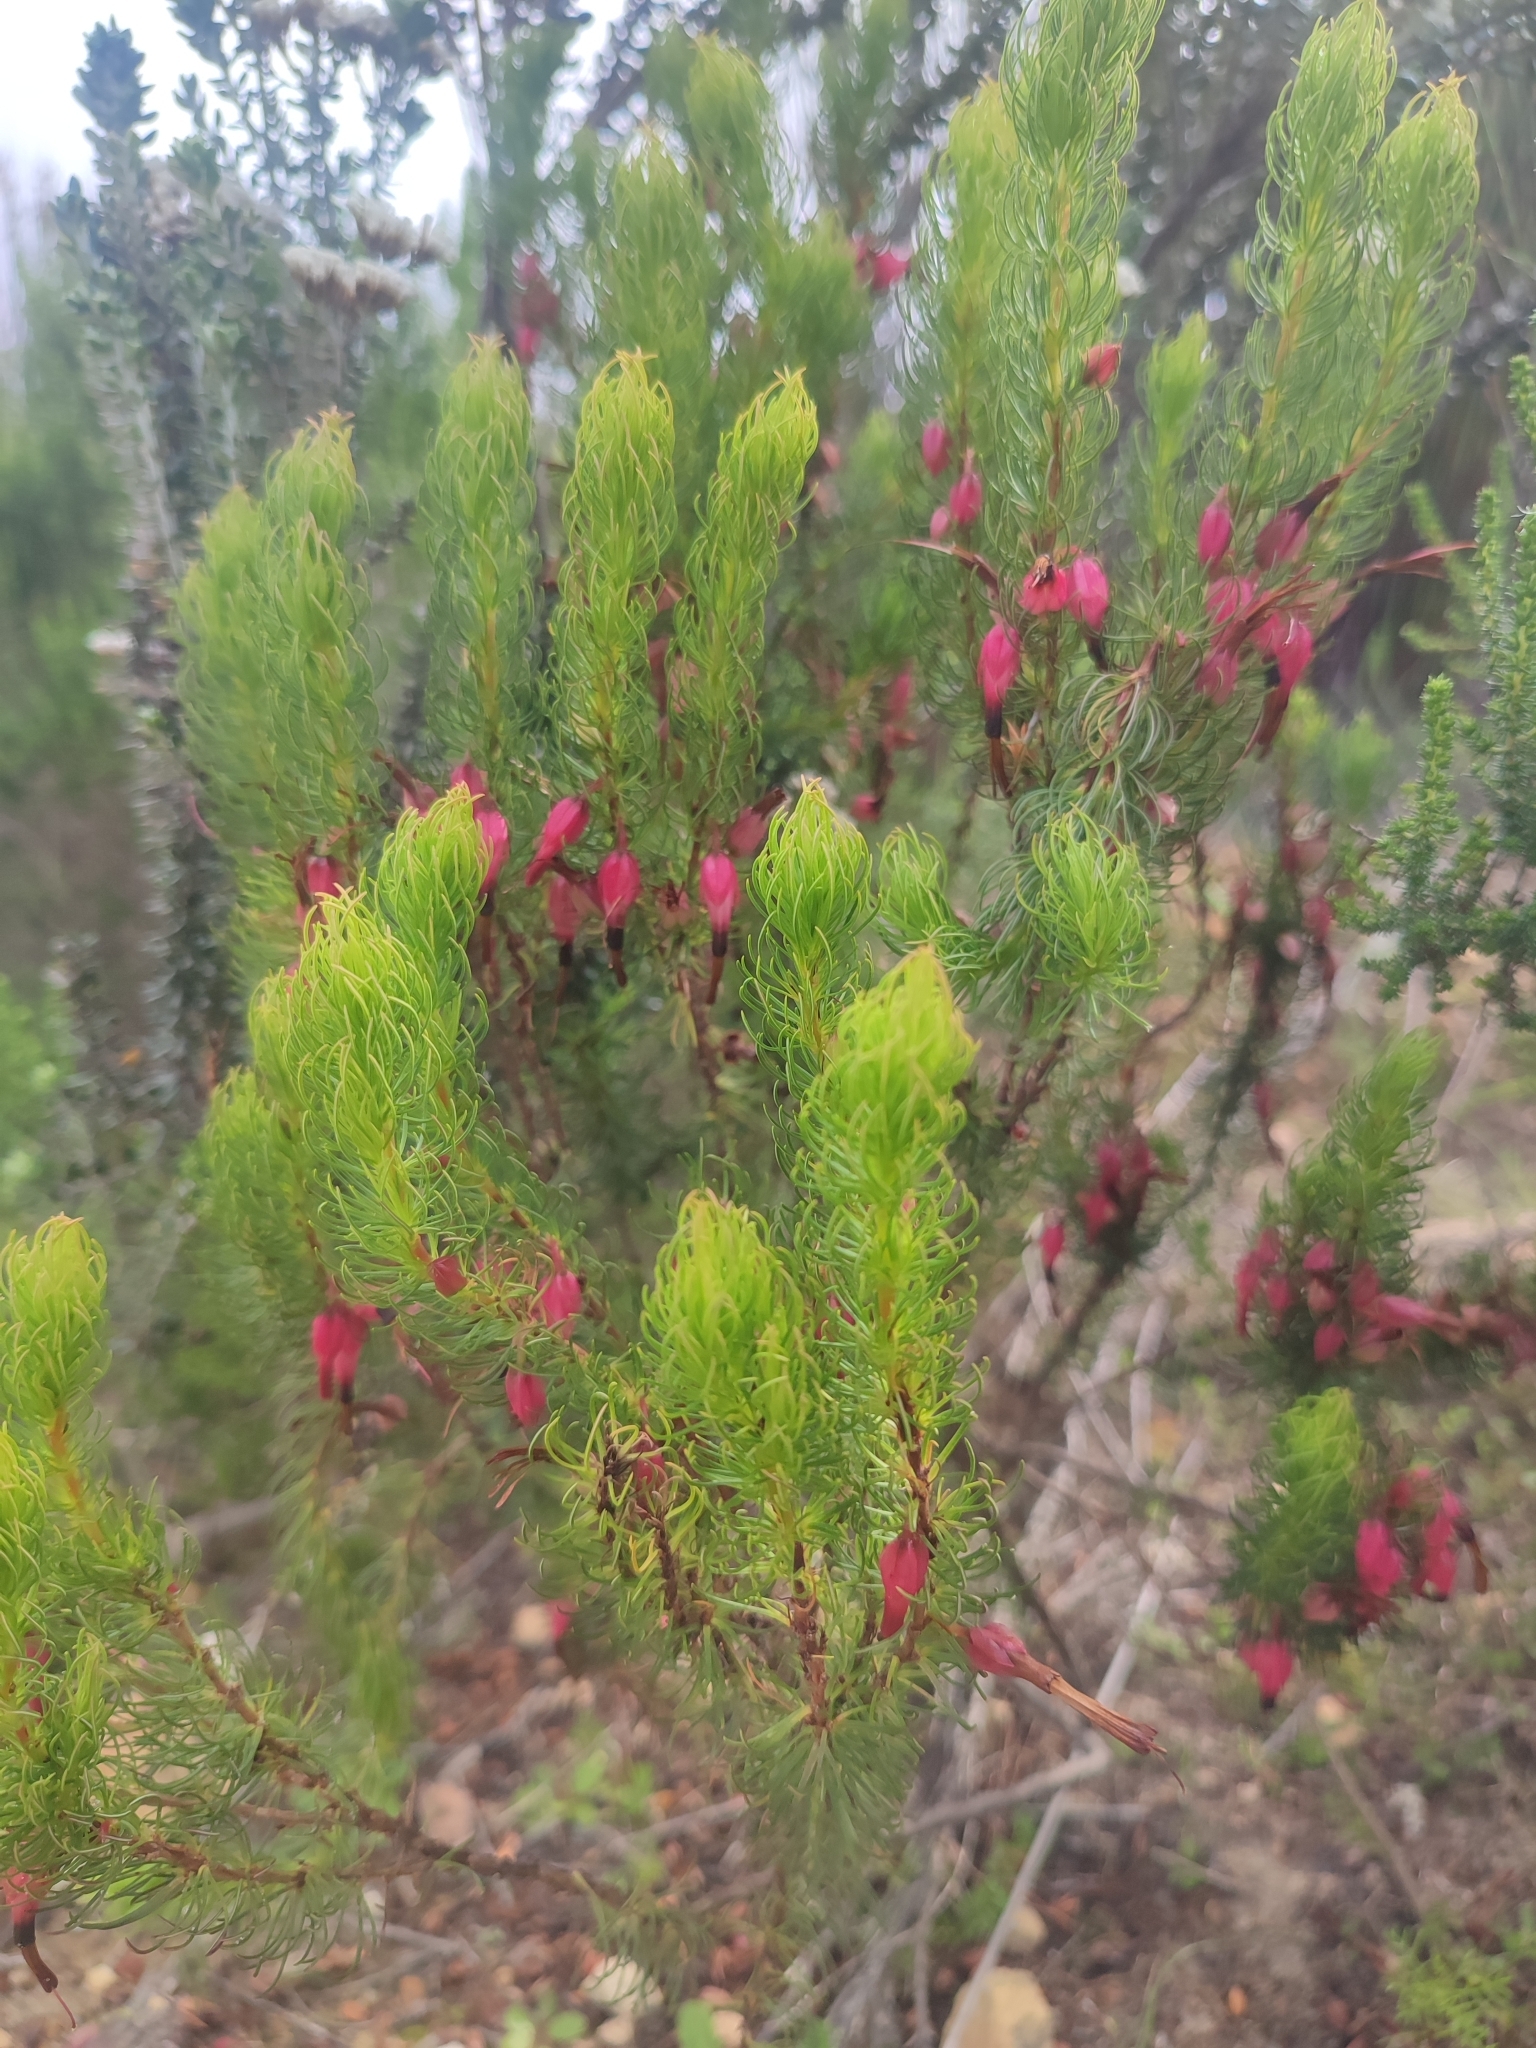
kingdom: Plantae
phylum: Tracheophyta
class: Magnoliopsida
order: Ericales
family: Ericaceae
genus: Erica
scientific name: Erica plukenetii
